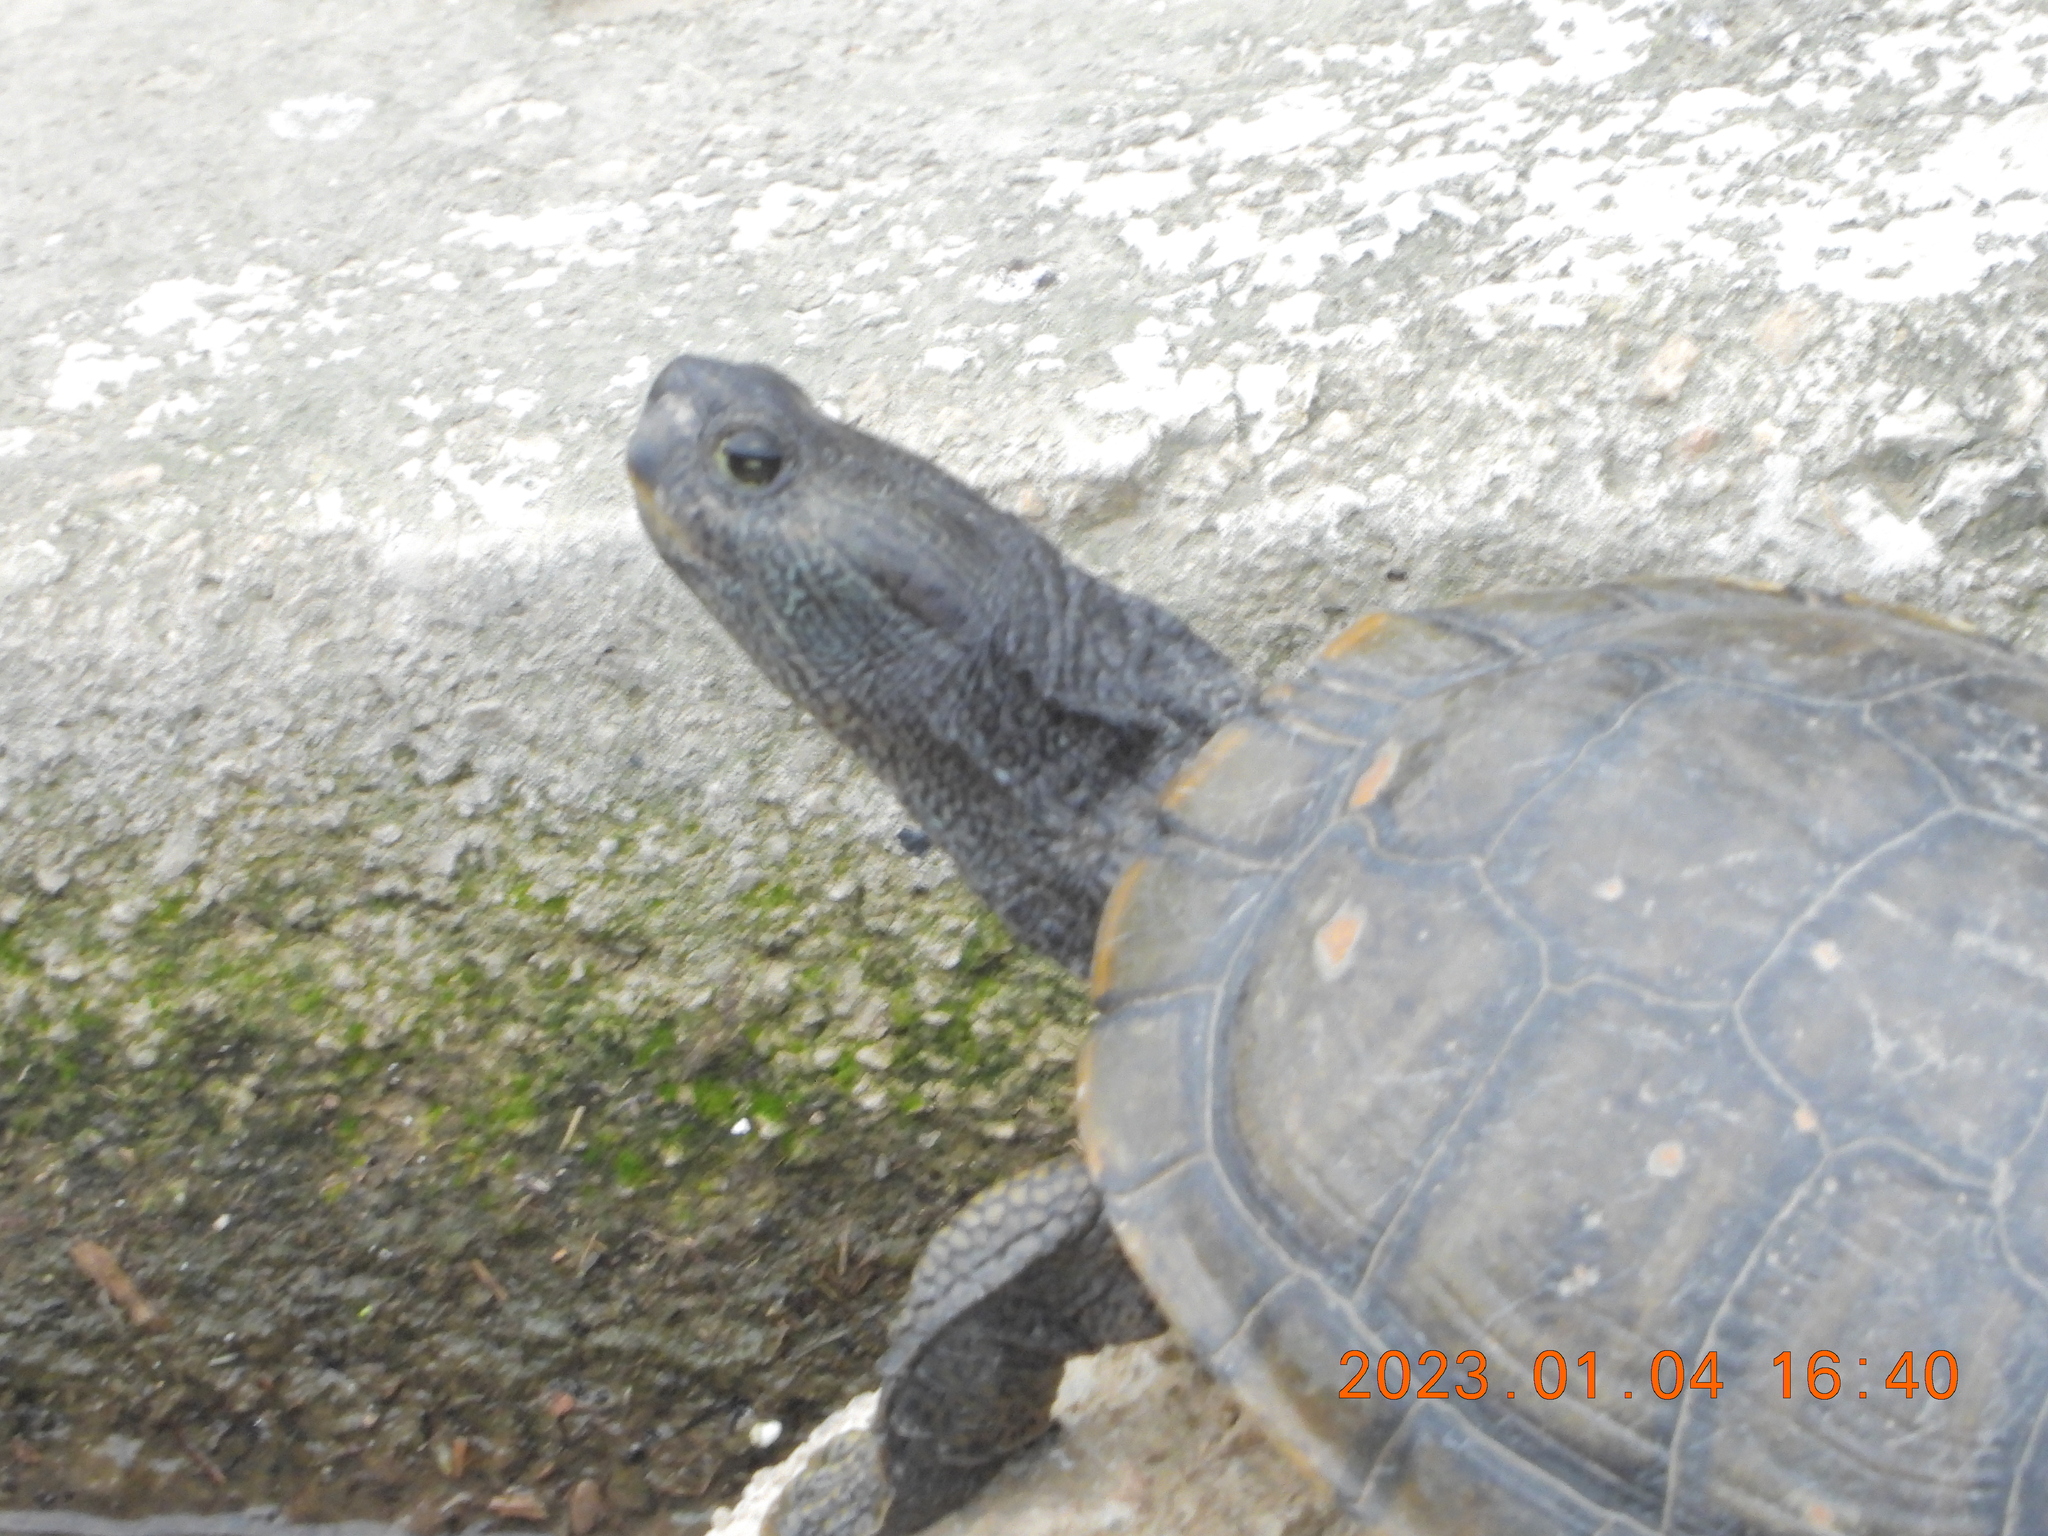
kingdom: Animalia
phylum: Chordata
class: Testudines
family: Emydidae
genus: Trachemys
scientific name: Trachemys scripta
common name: Slider
